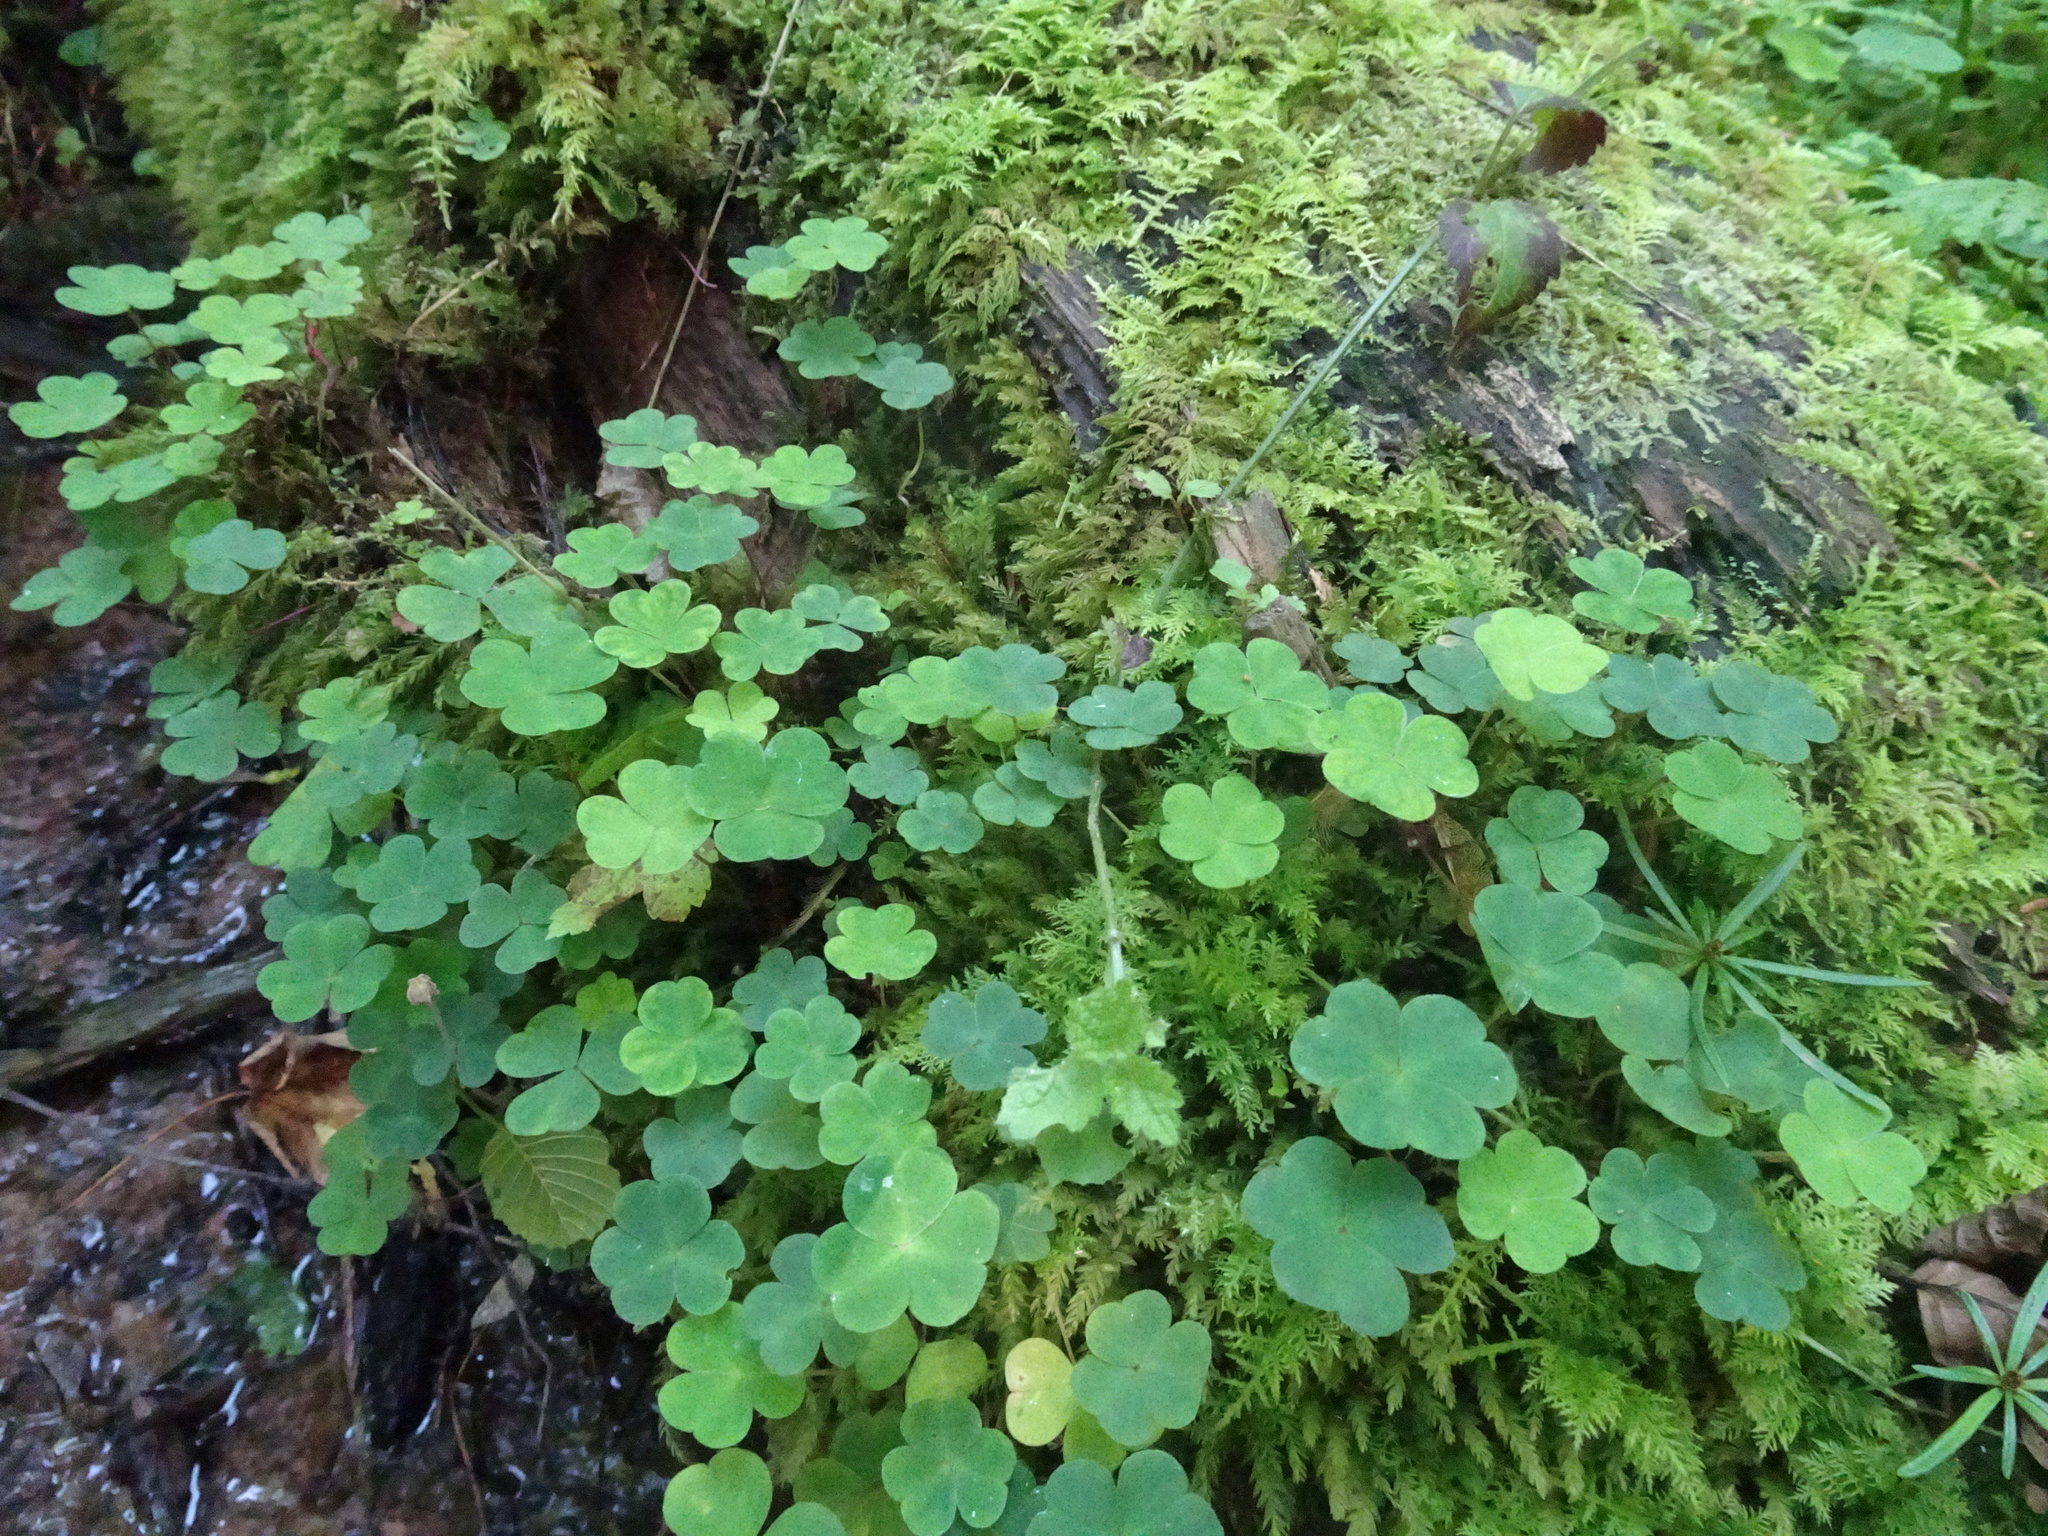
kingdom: Plantae
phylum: Tracheophyta
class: Magnoliopsida
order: Oxalidales
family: Oxalidaceae
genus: Oxalis
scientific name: Oxalis acetosella
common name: Wood-sorrel
